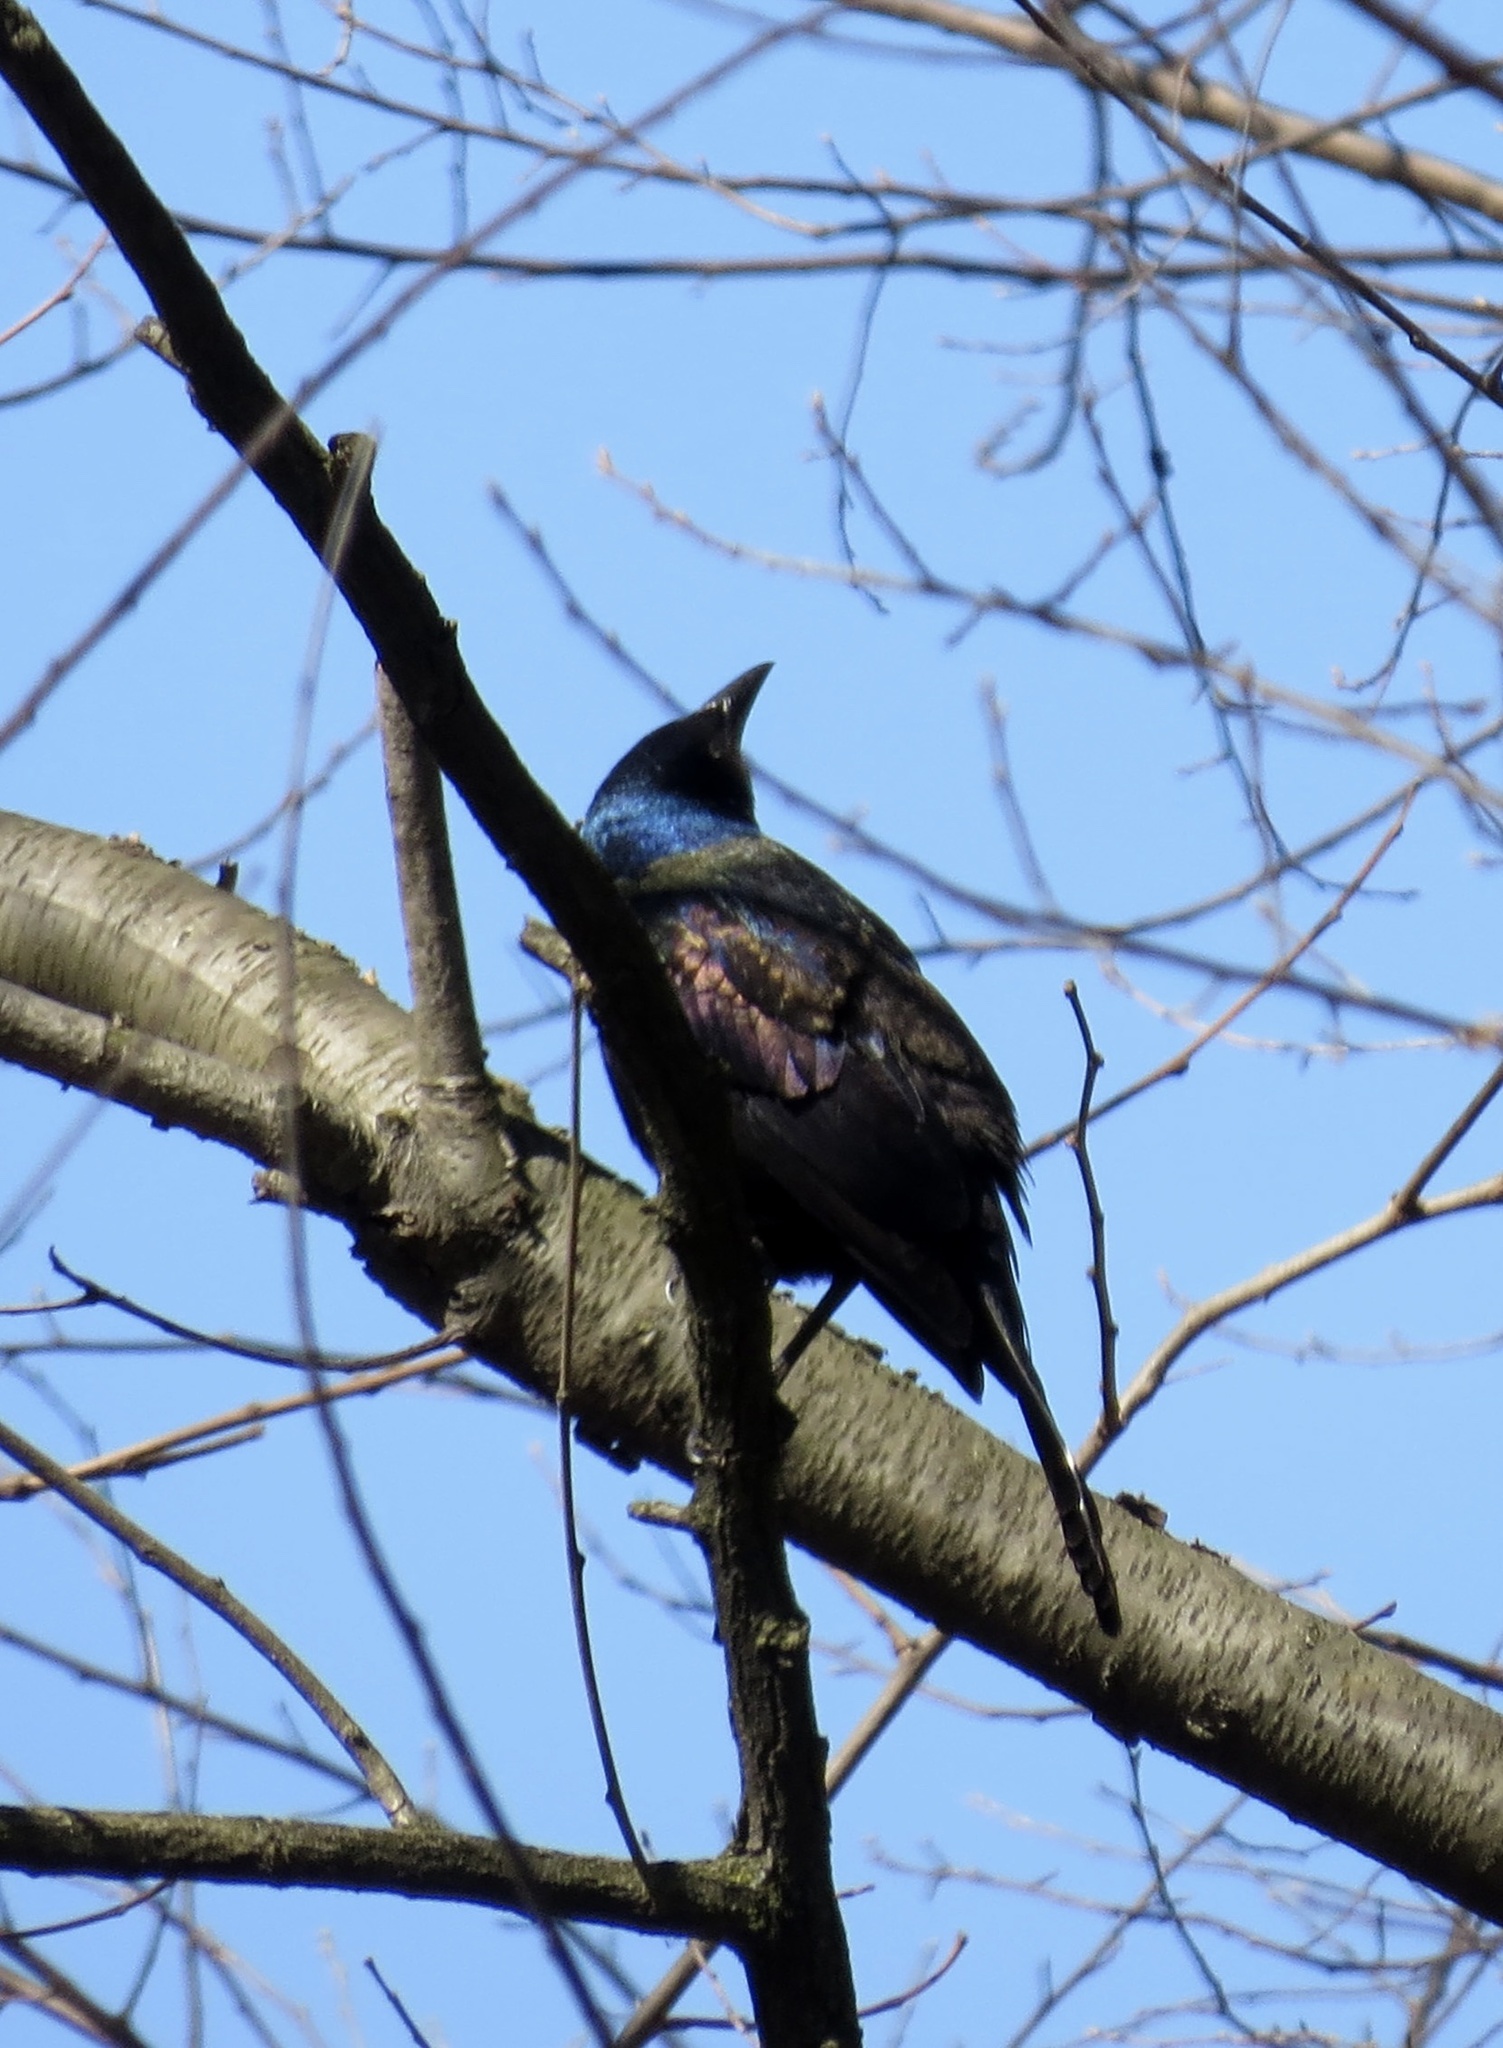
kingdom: Animalia
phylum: Chordata
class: Aves
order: Passeriformes
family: Icteridae
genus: Quiscalus
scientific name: Quiscalus quiscula
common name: Common grackle
